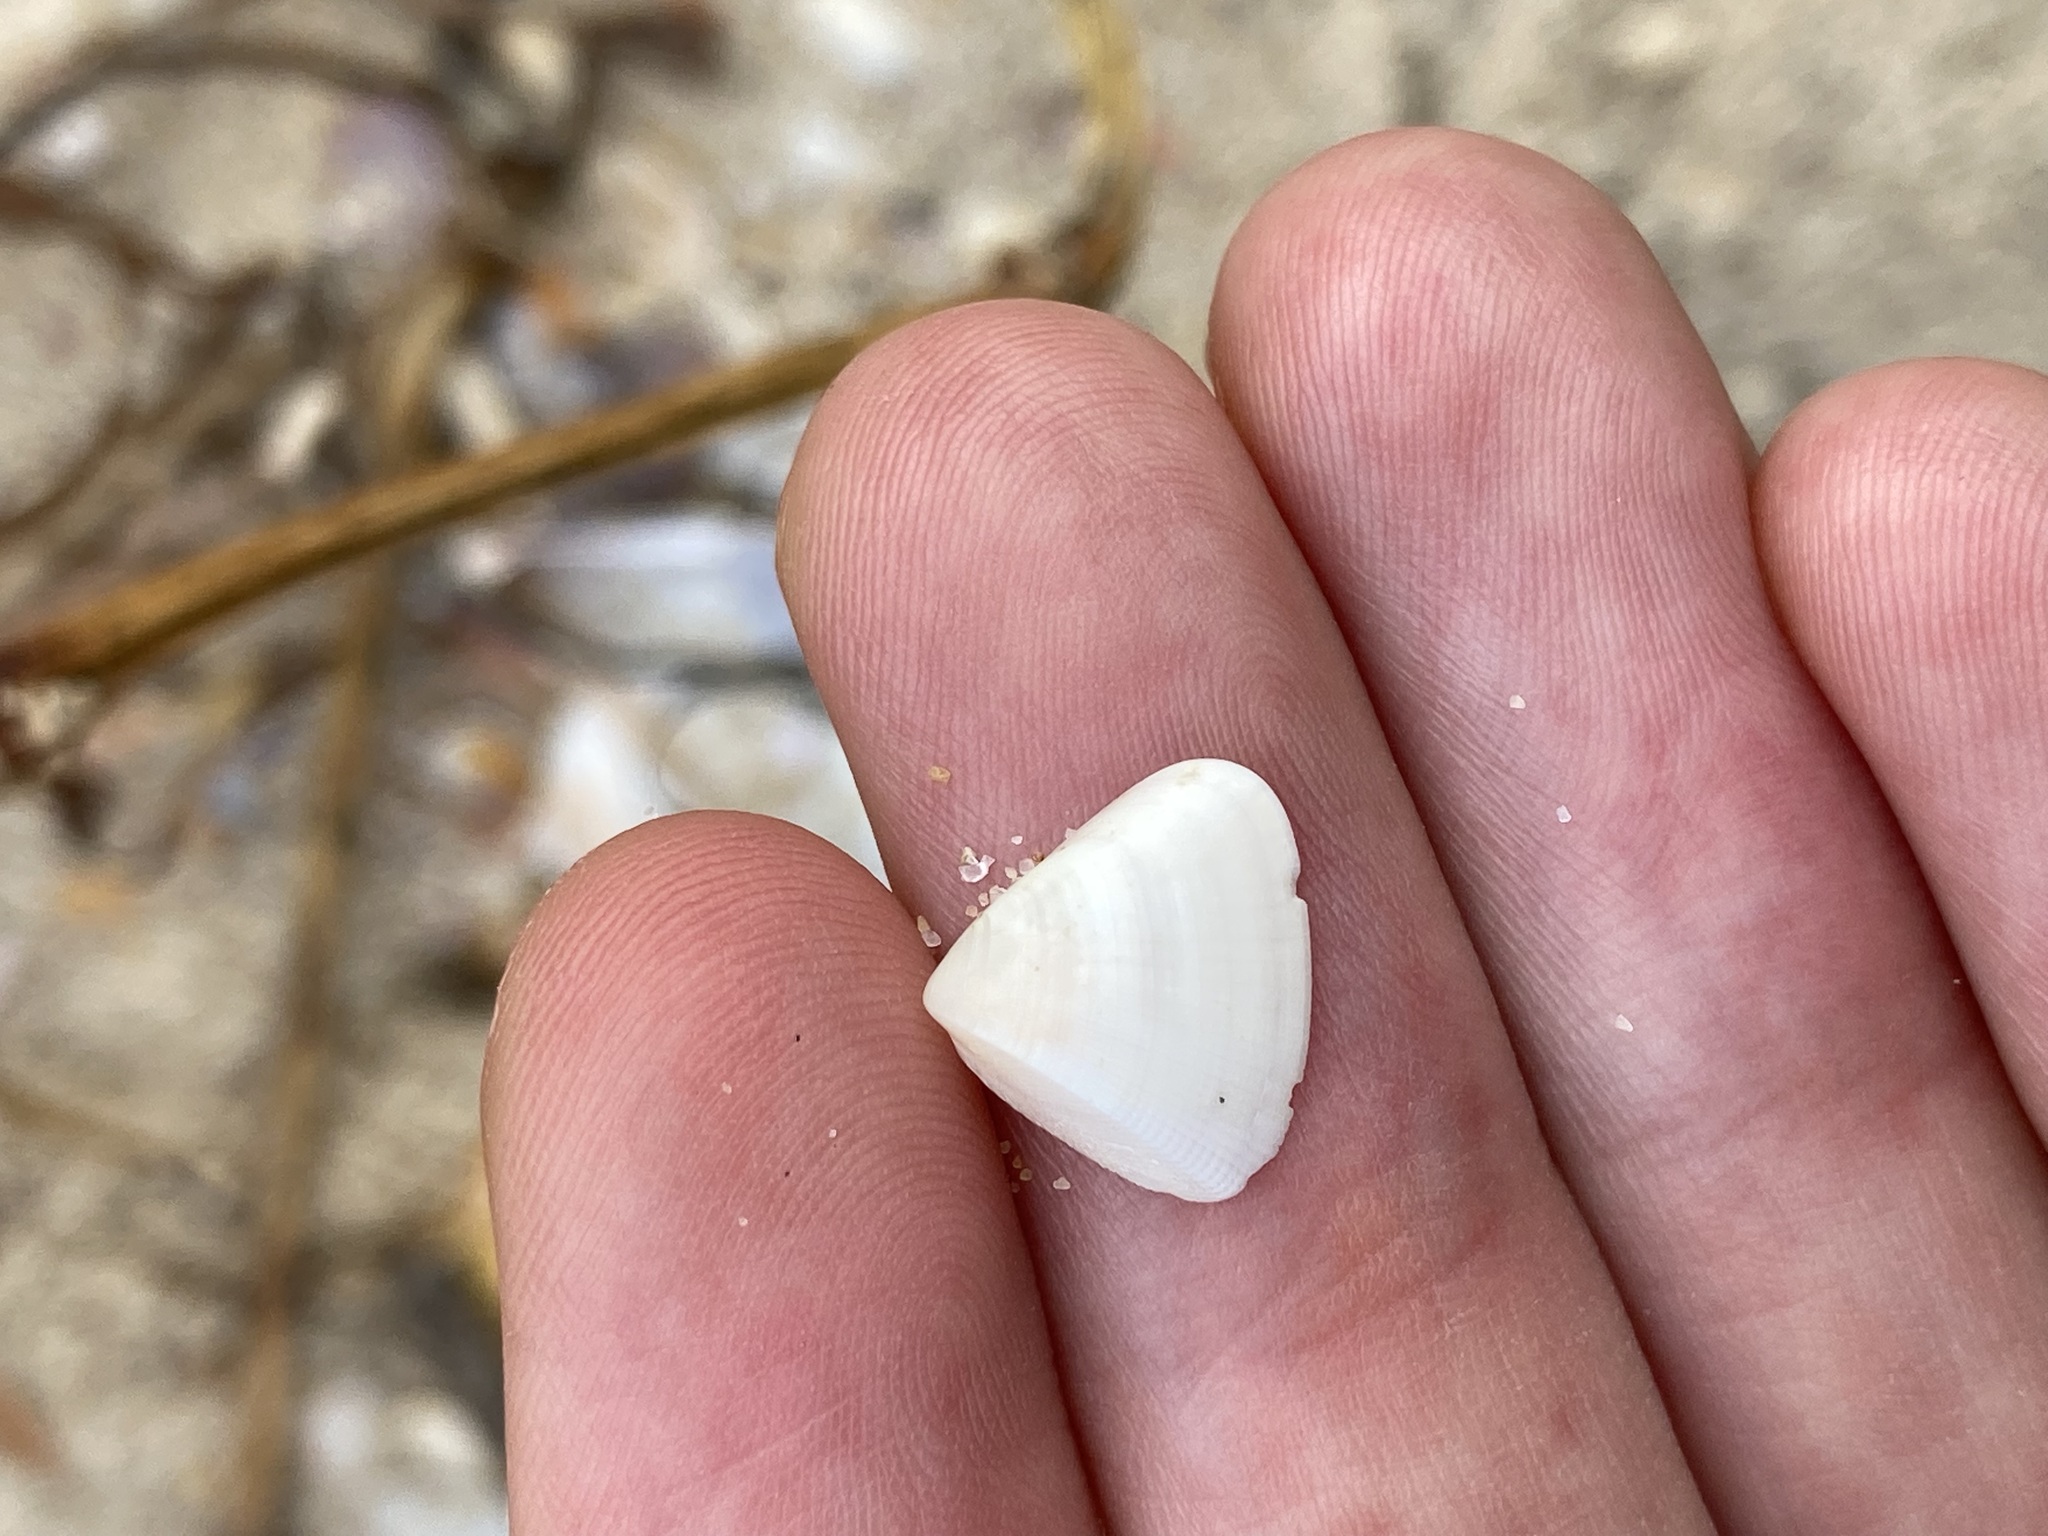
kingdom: Animalia
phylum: Mollusca
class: Bivalvia
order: Cardiida
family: Donacidae
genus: Donax
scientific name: Donax brazieri
